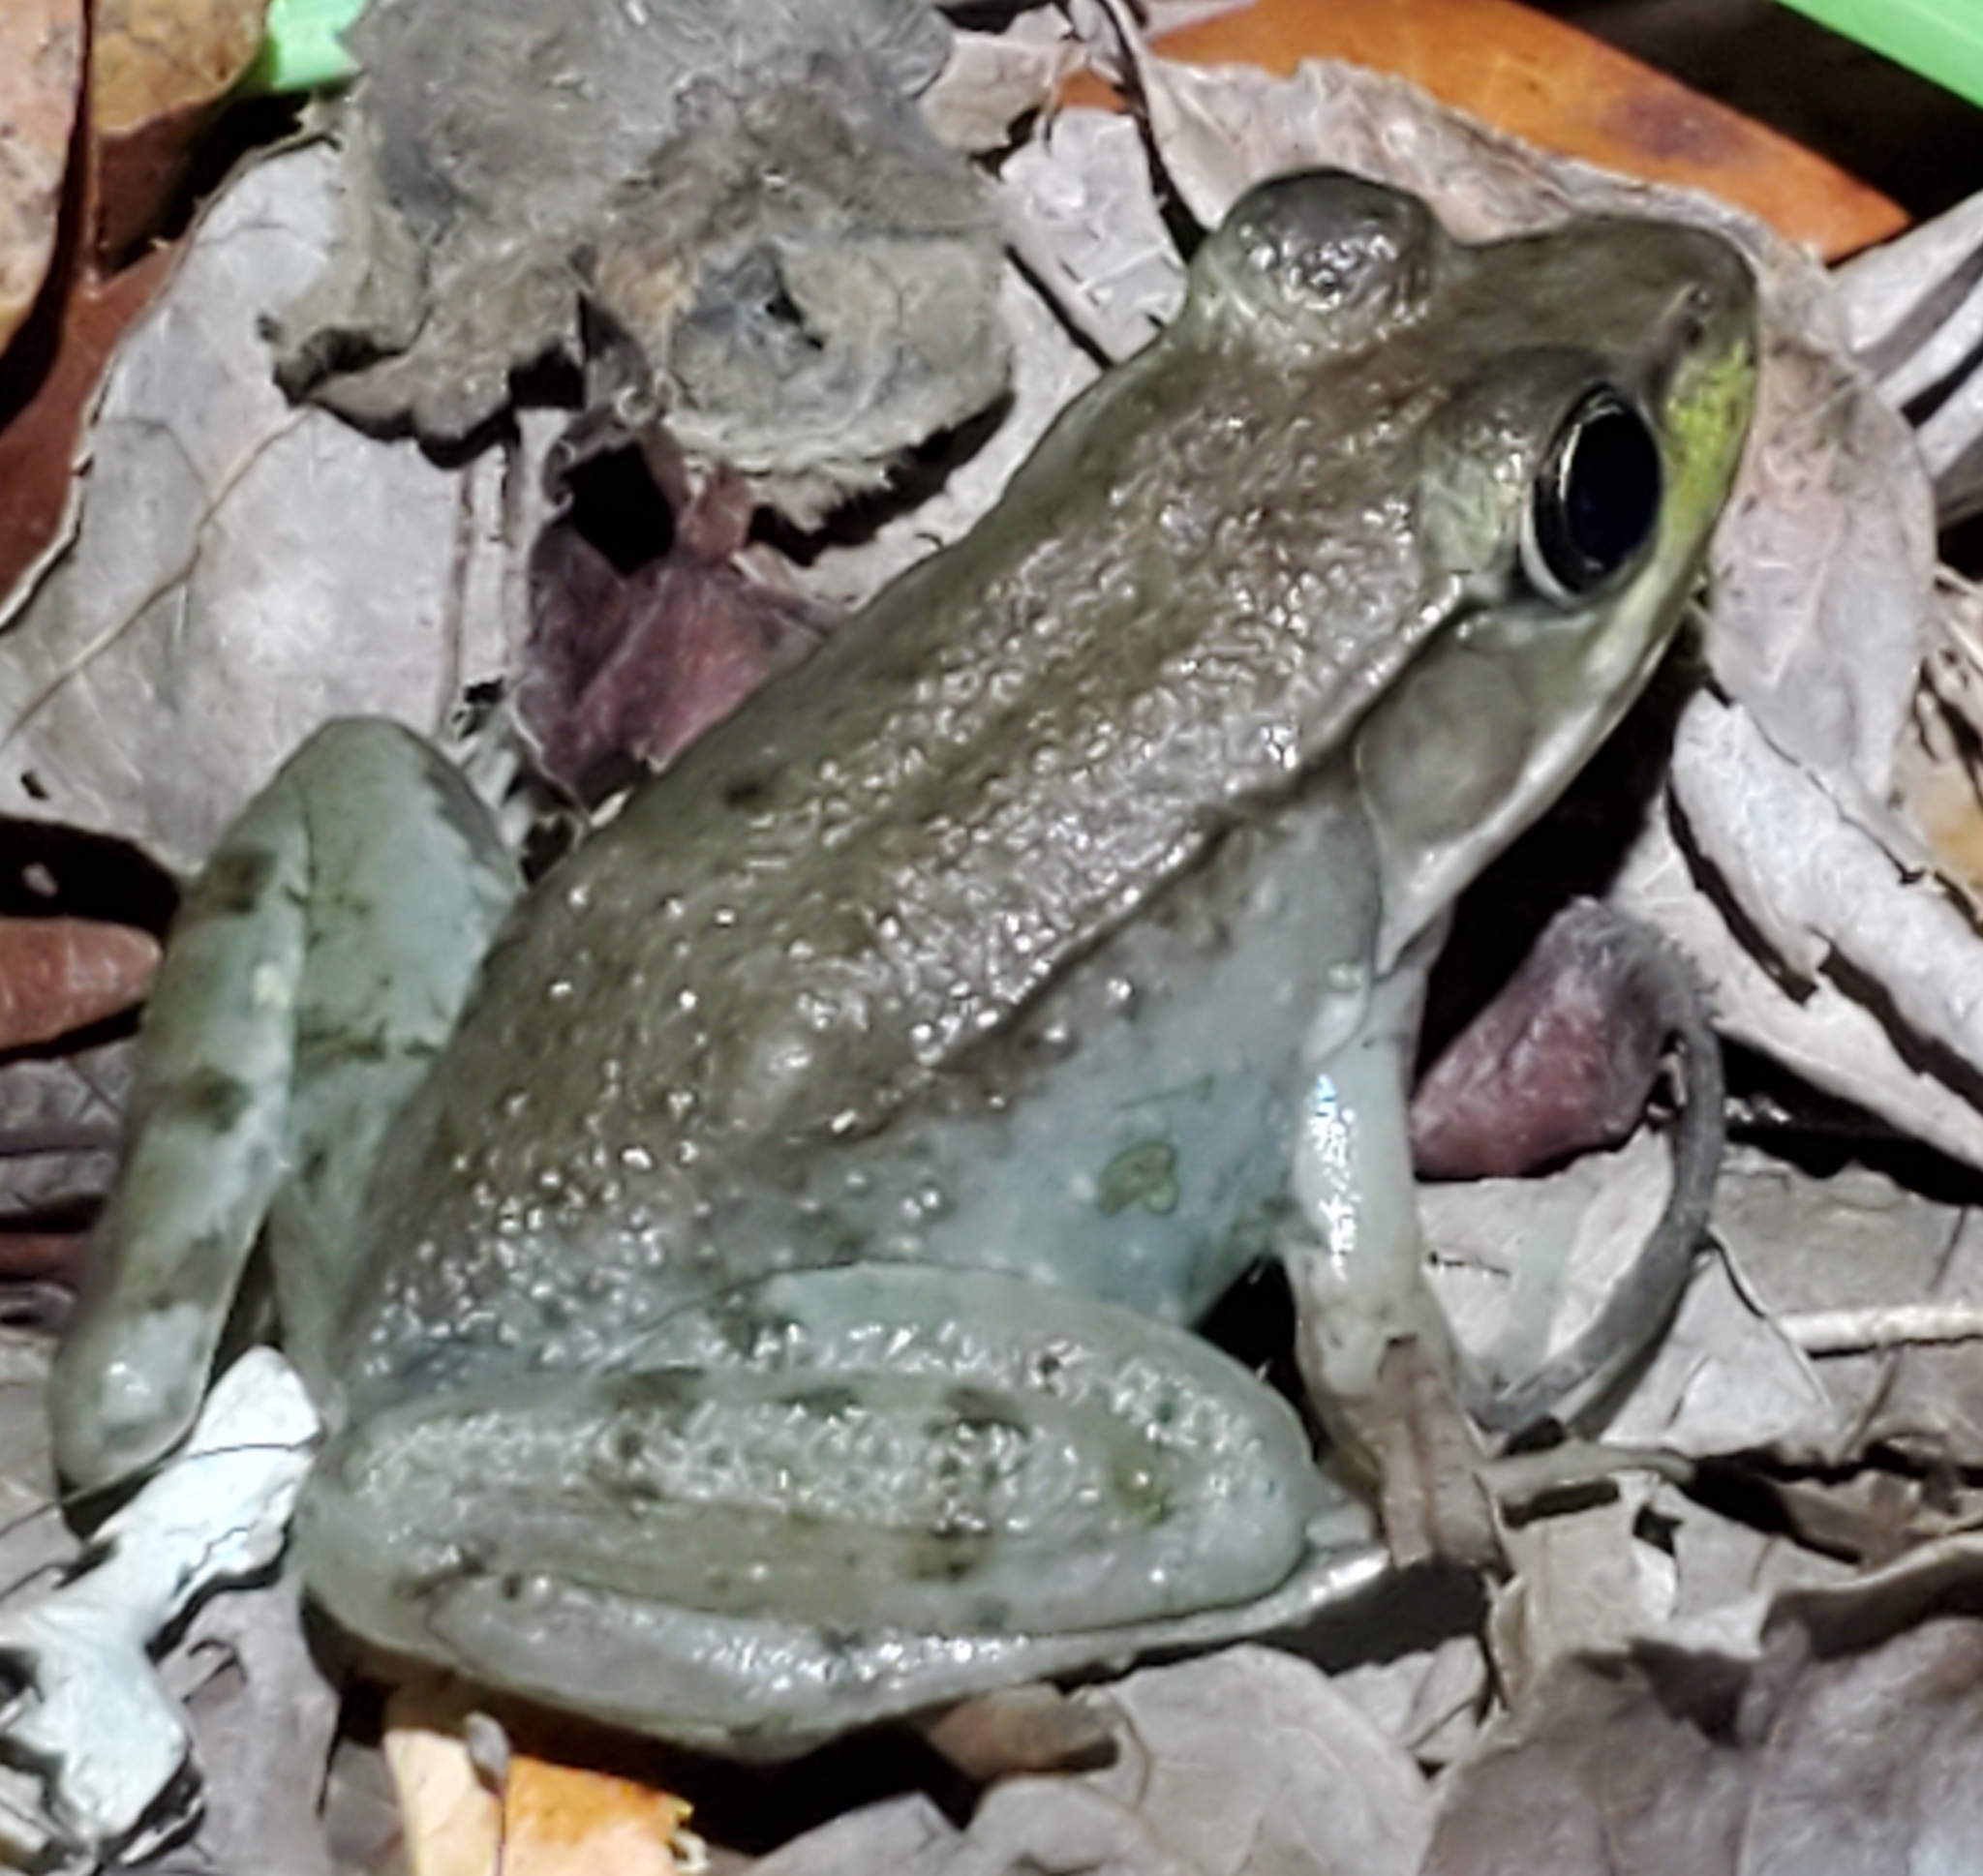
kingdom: Animalia
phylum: Chordata
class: Amphibia
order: Anura
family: Ranidae
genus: Lithobates
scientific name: Lithobates clamitans
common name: Green frog
